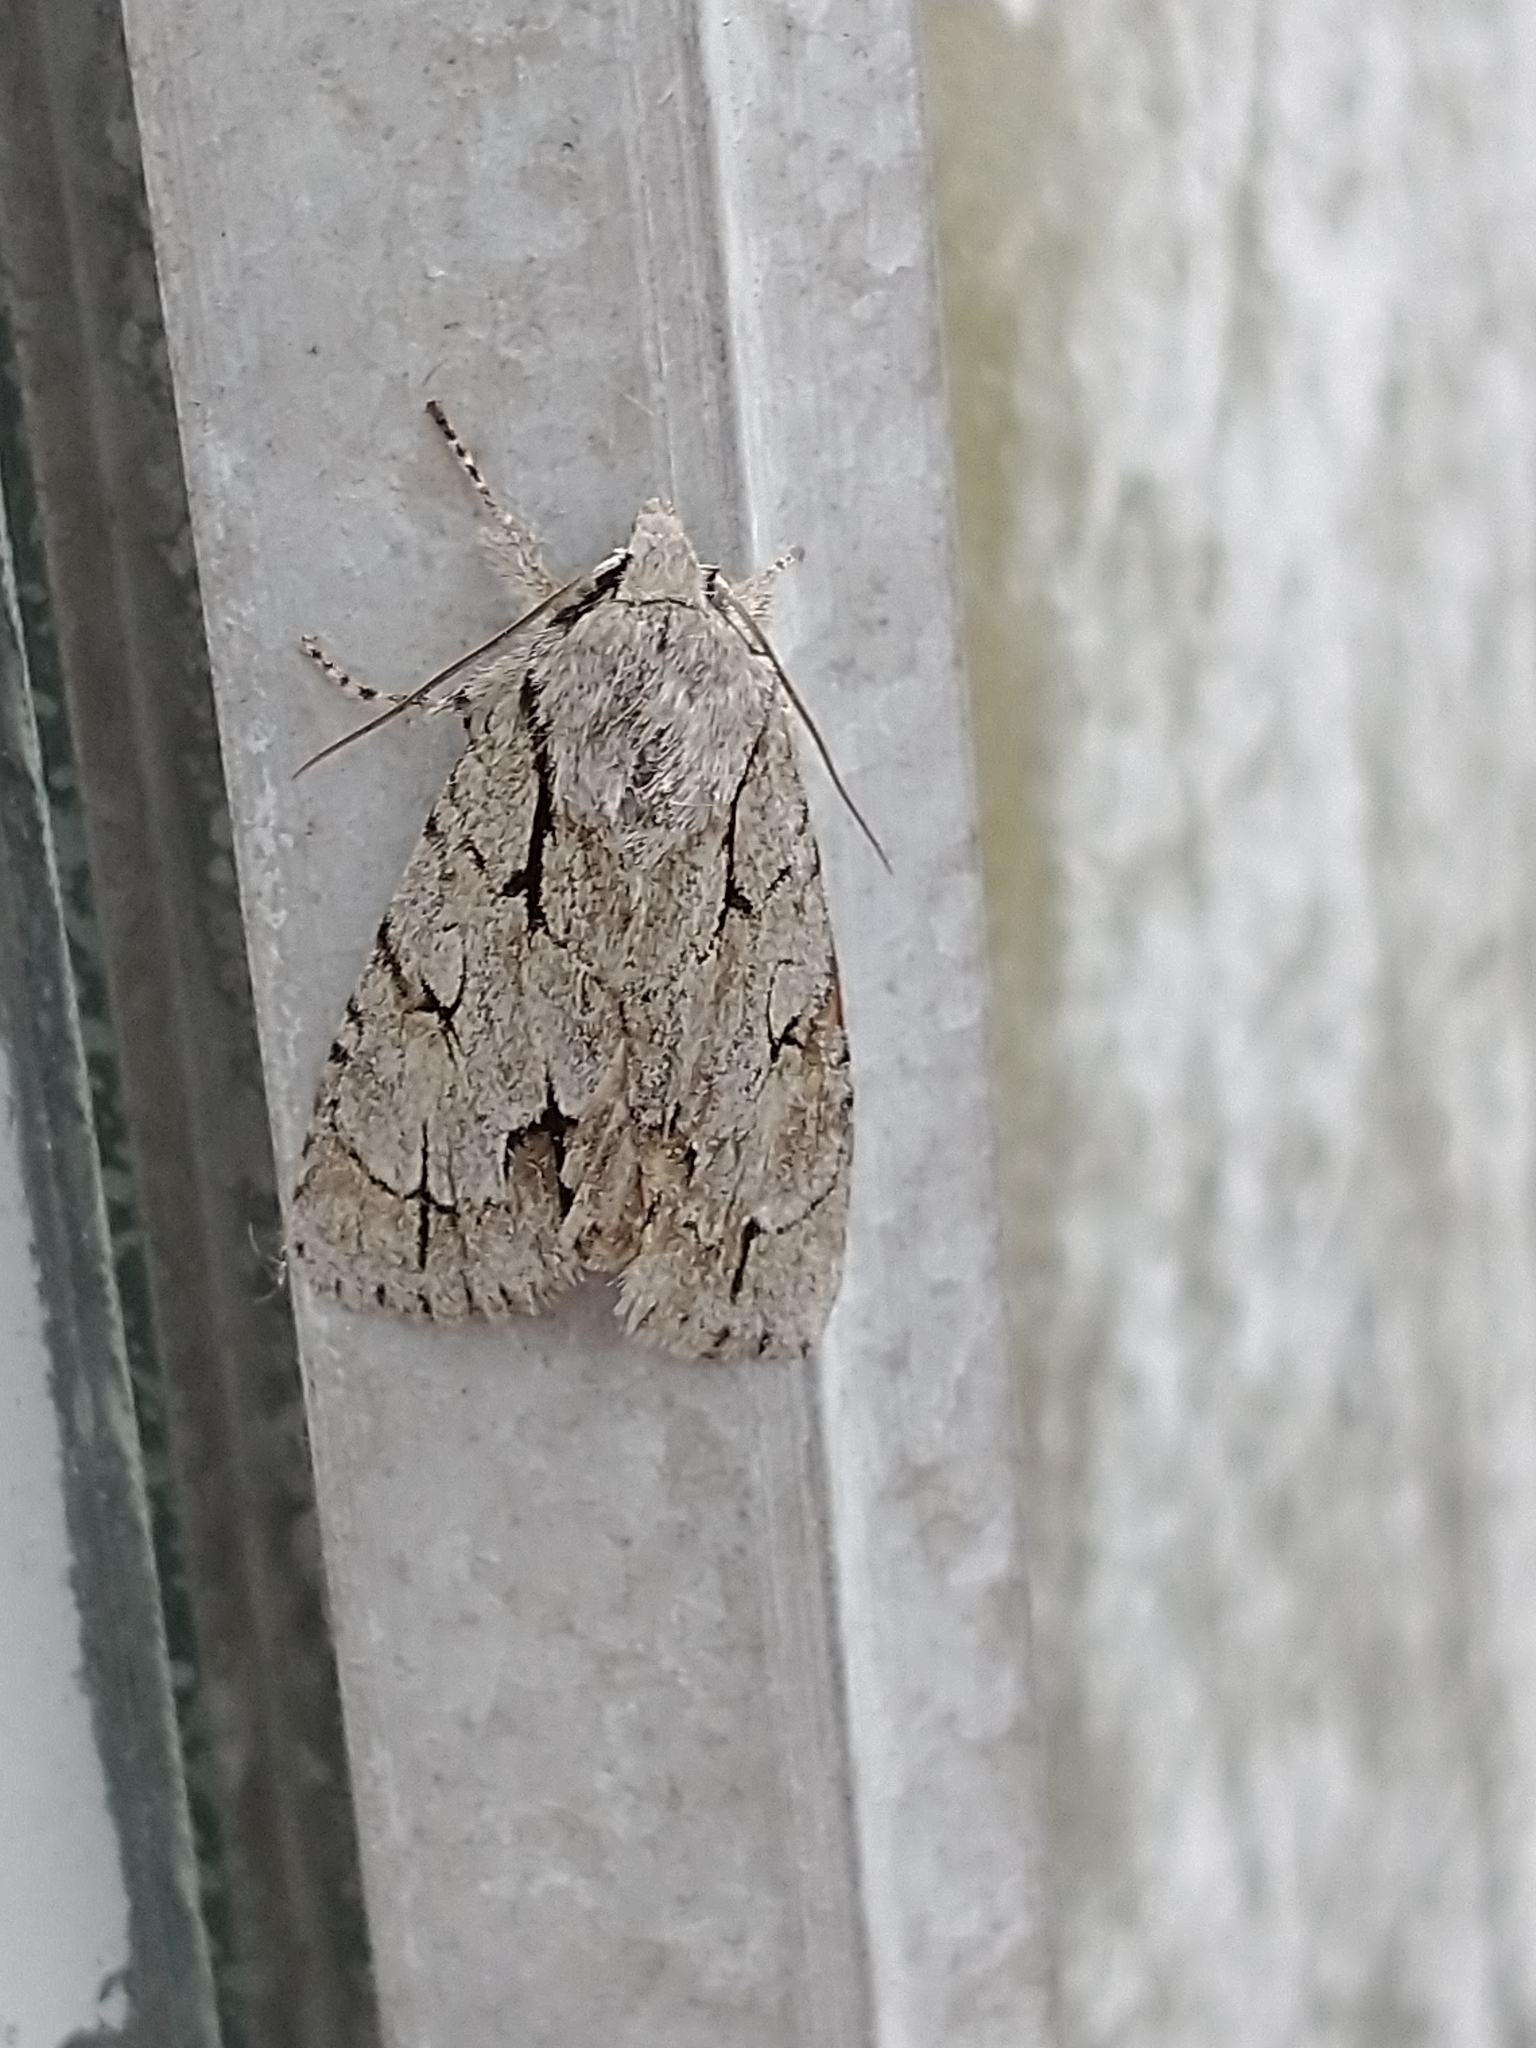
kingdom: Animalia
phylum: Arthropoda
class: Insecta
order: Lepidoptera
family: Noctuidae
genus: Acronicta
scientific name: Acronicta
